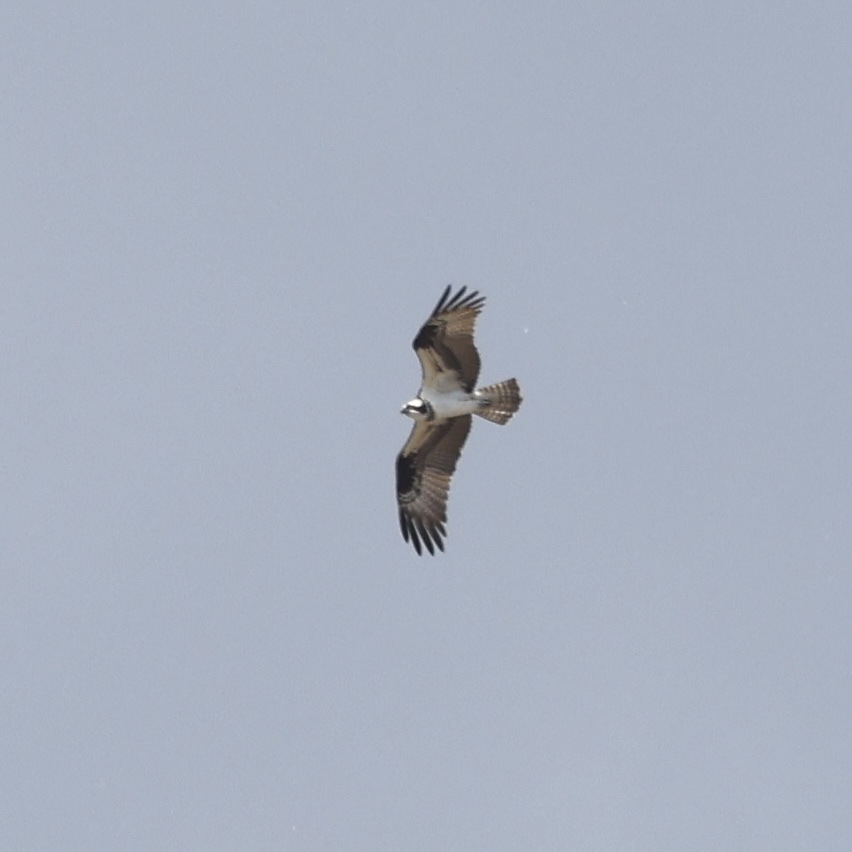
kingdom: Animalia
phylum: Chordata
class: Aves
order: Accipitriformes
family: Pandionidae
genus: Pandion
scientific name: Pandion haliaetus
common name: Osprey
